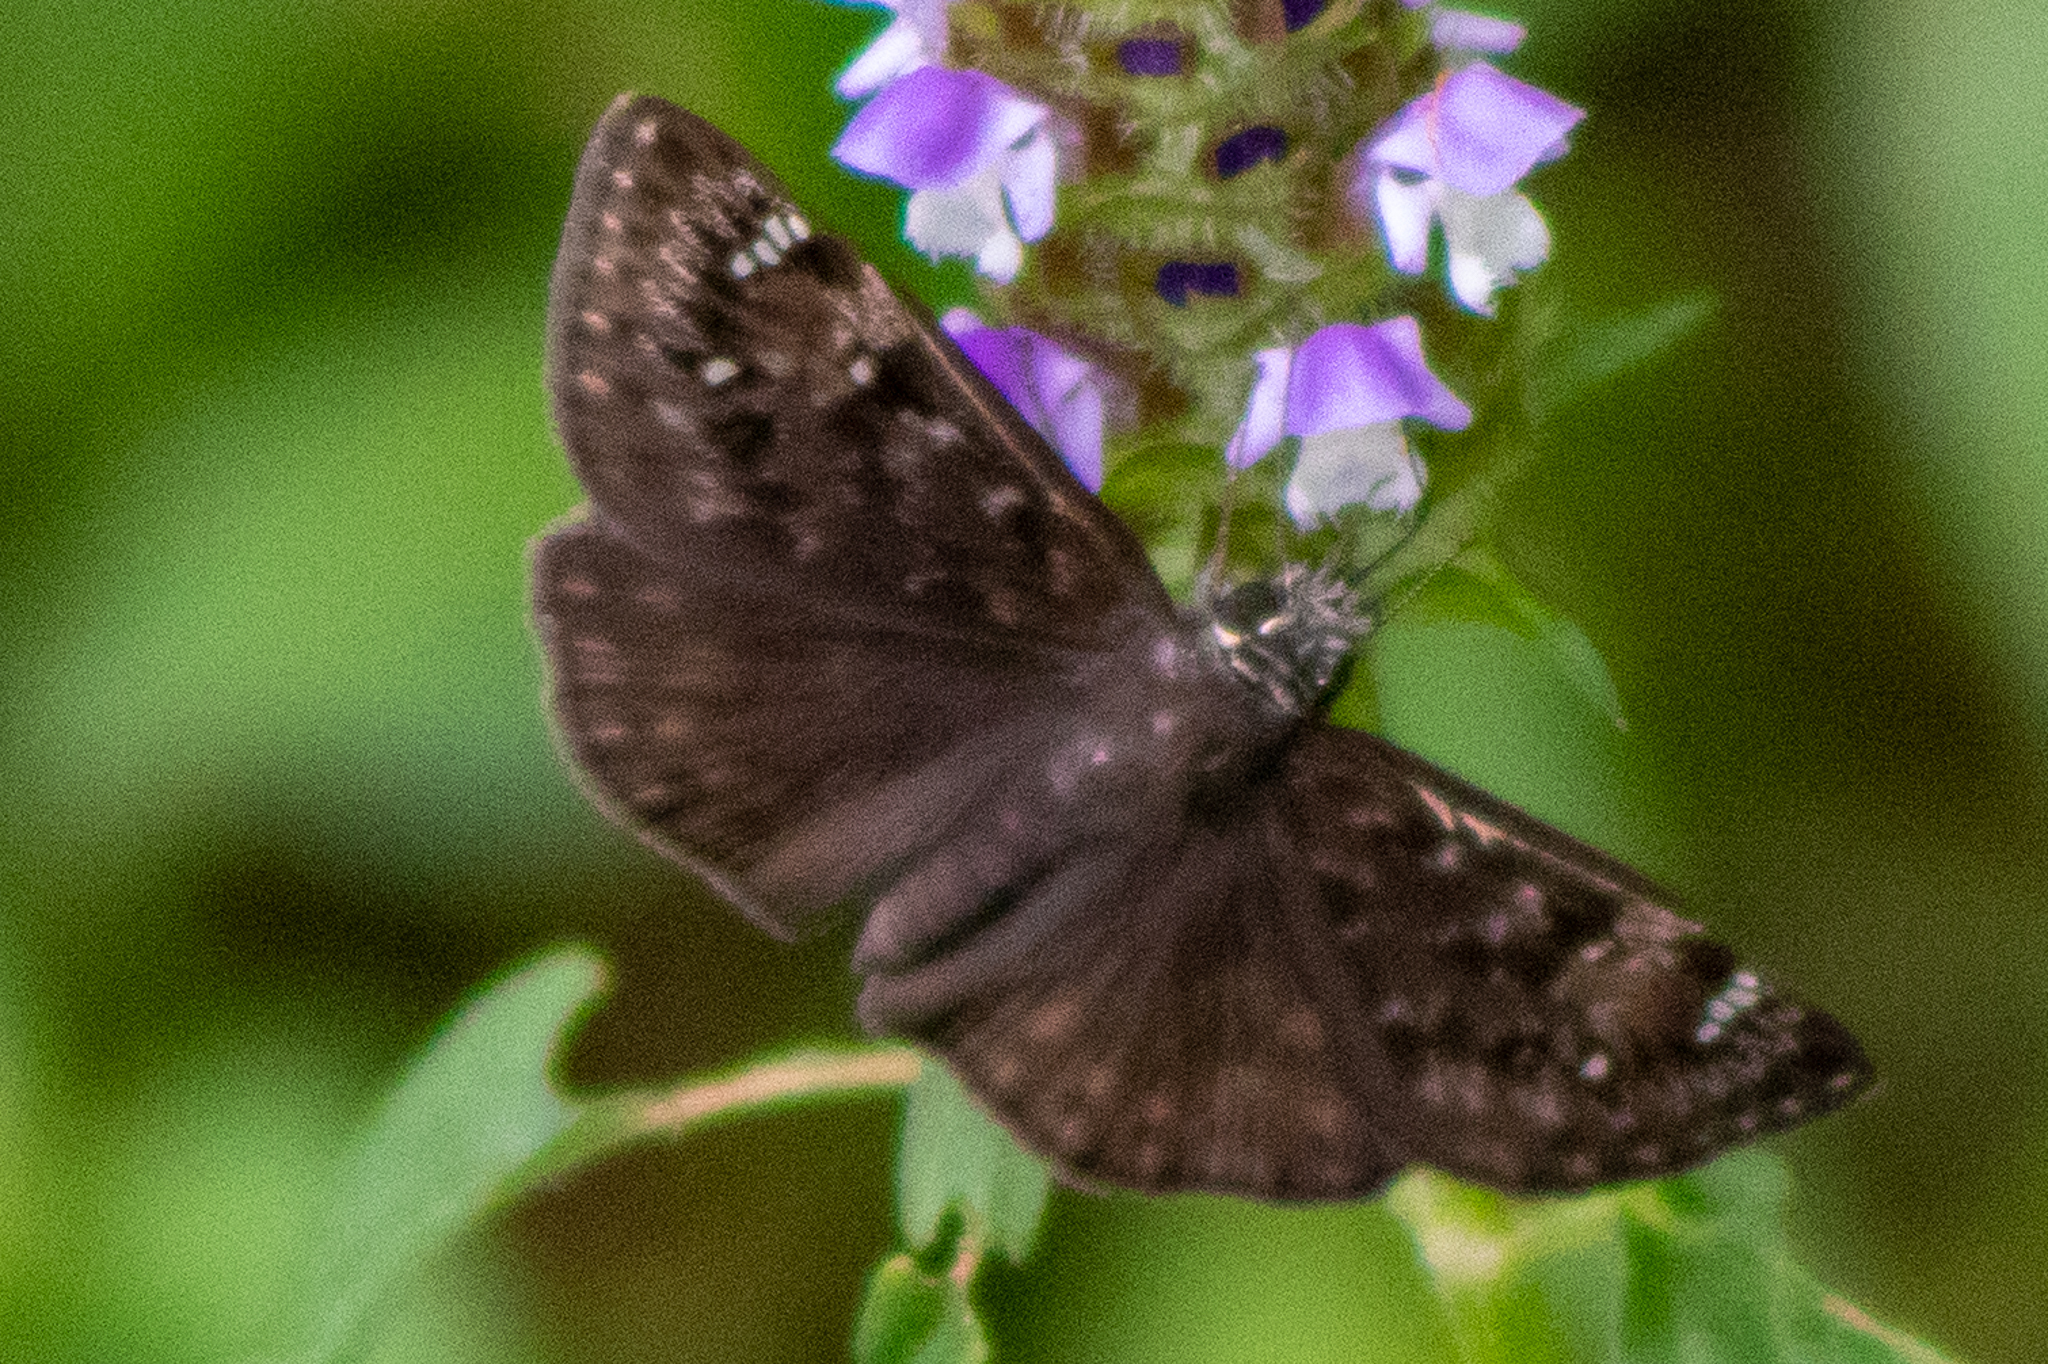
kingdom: Animalia
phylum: Arthropoda
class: Insecta
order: Lepidoptera
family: Hesperiidae
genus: Erynnis
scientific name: Erynnis horatius
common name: Horace's duskywing
